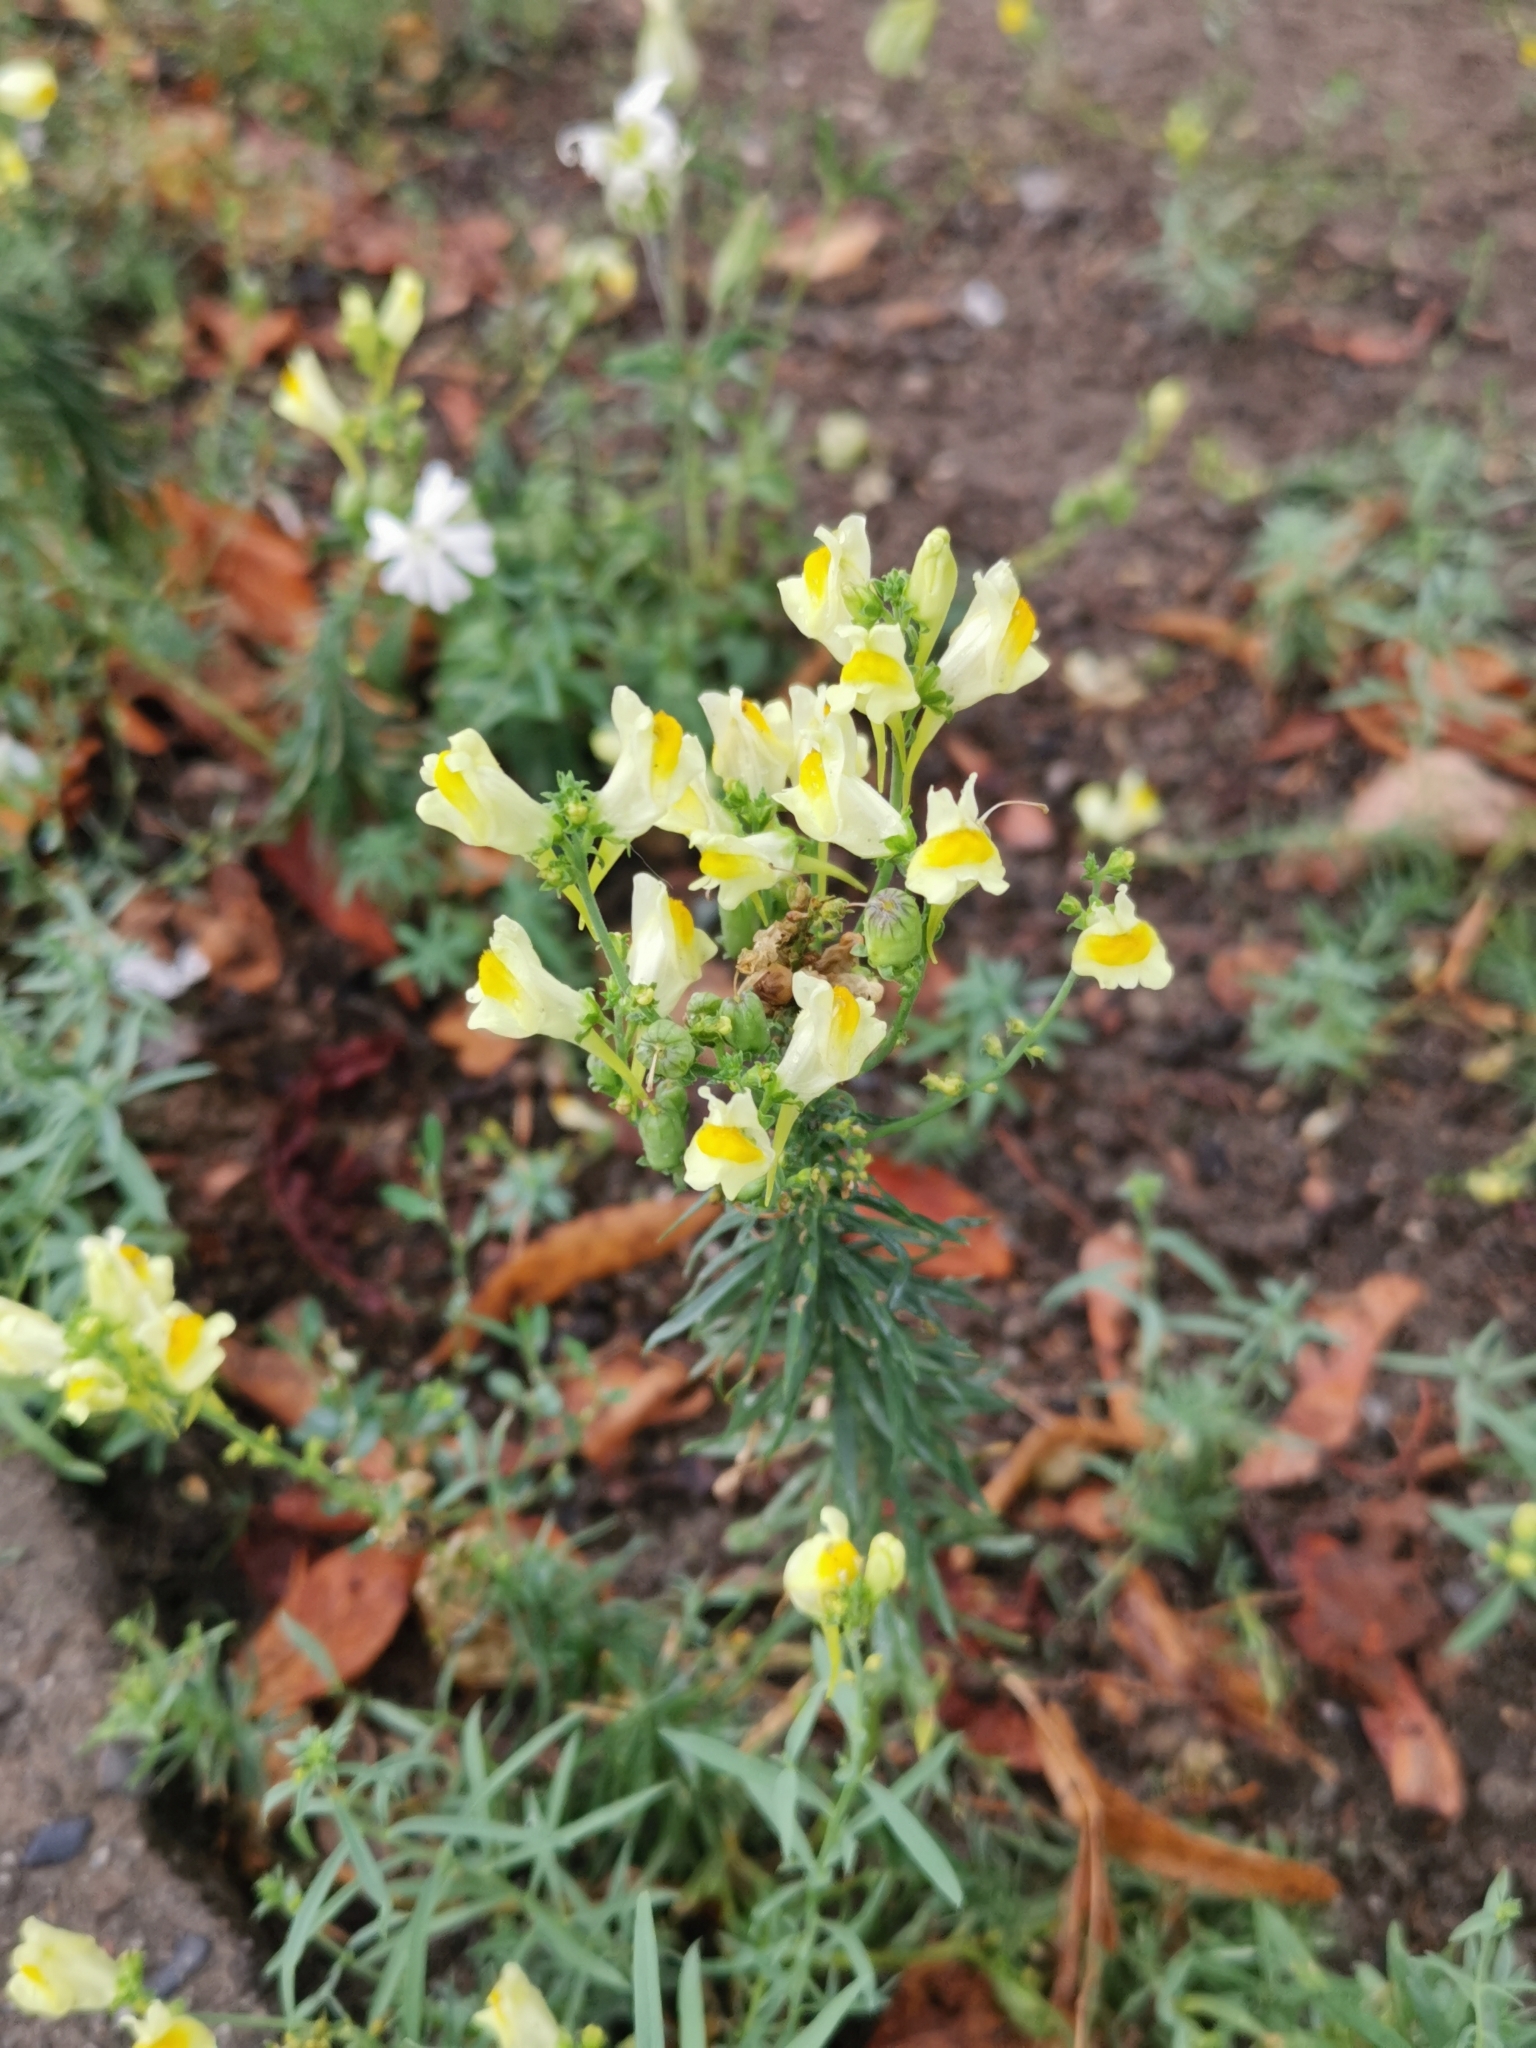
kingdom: Plantae
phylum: Tracheophyta
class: Magnoliopsida
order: Lamiales
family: Plantaginaceae
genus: Linaria
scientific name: Linaria vulgaris
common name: Butter and eggs
